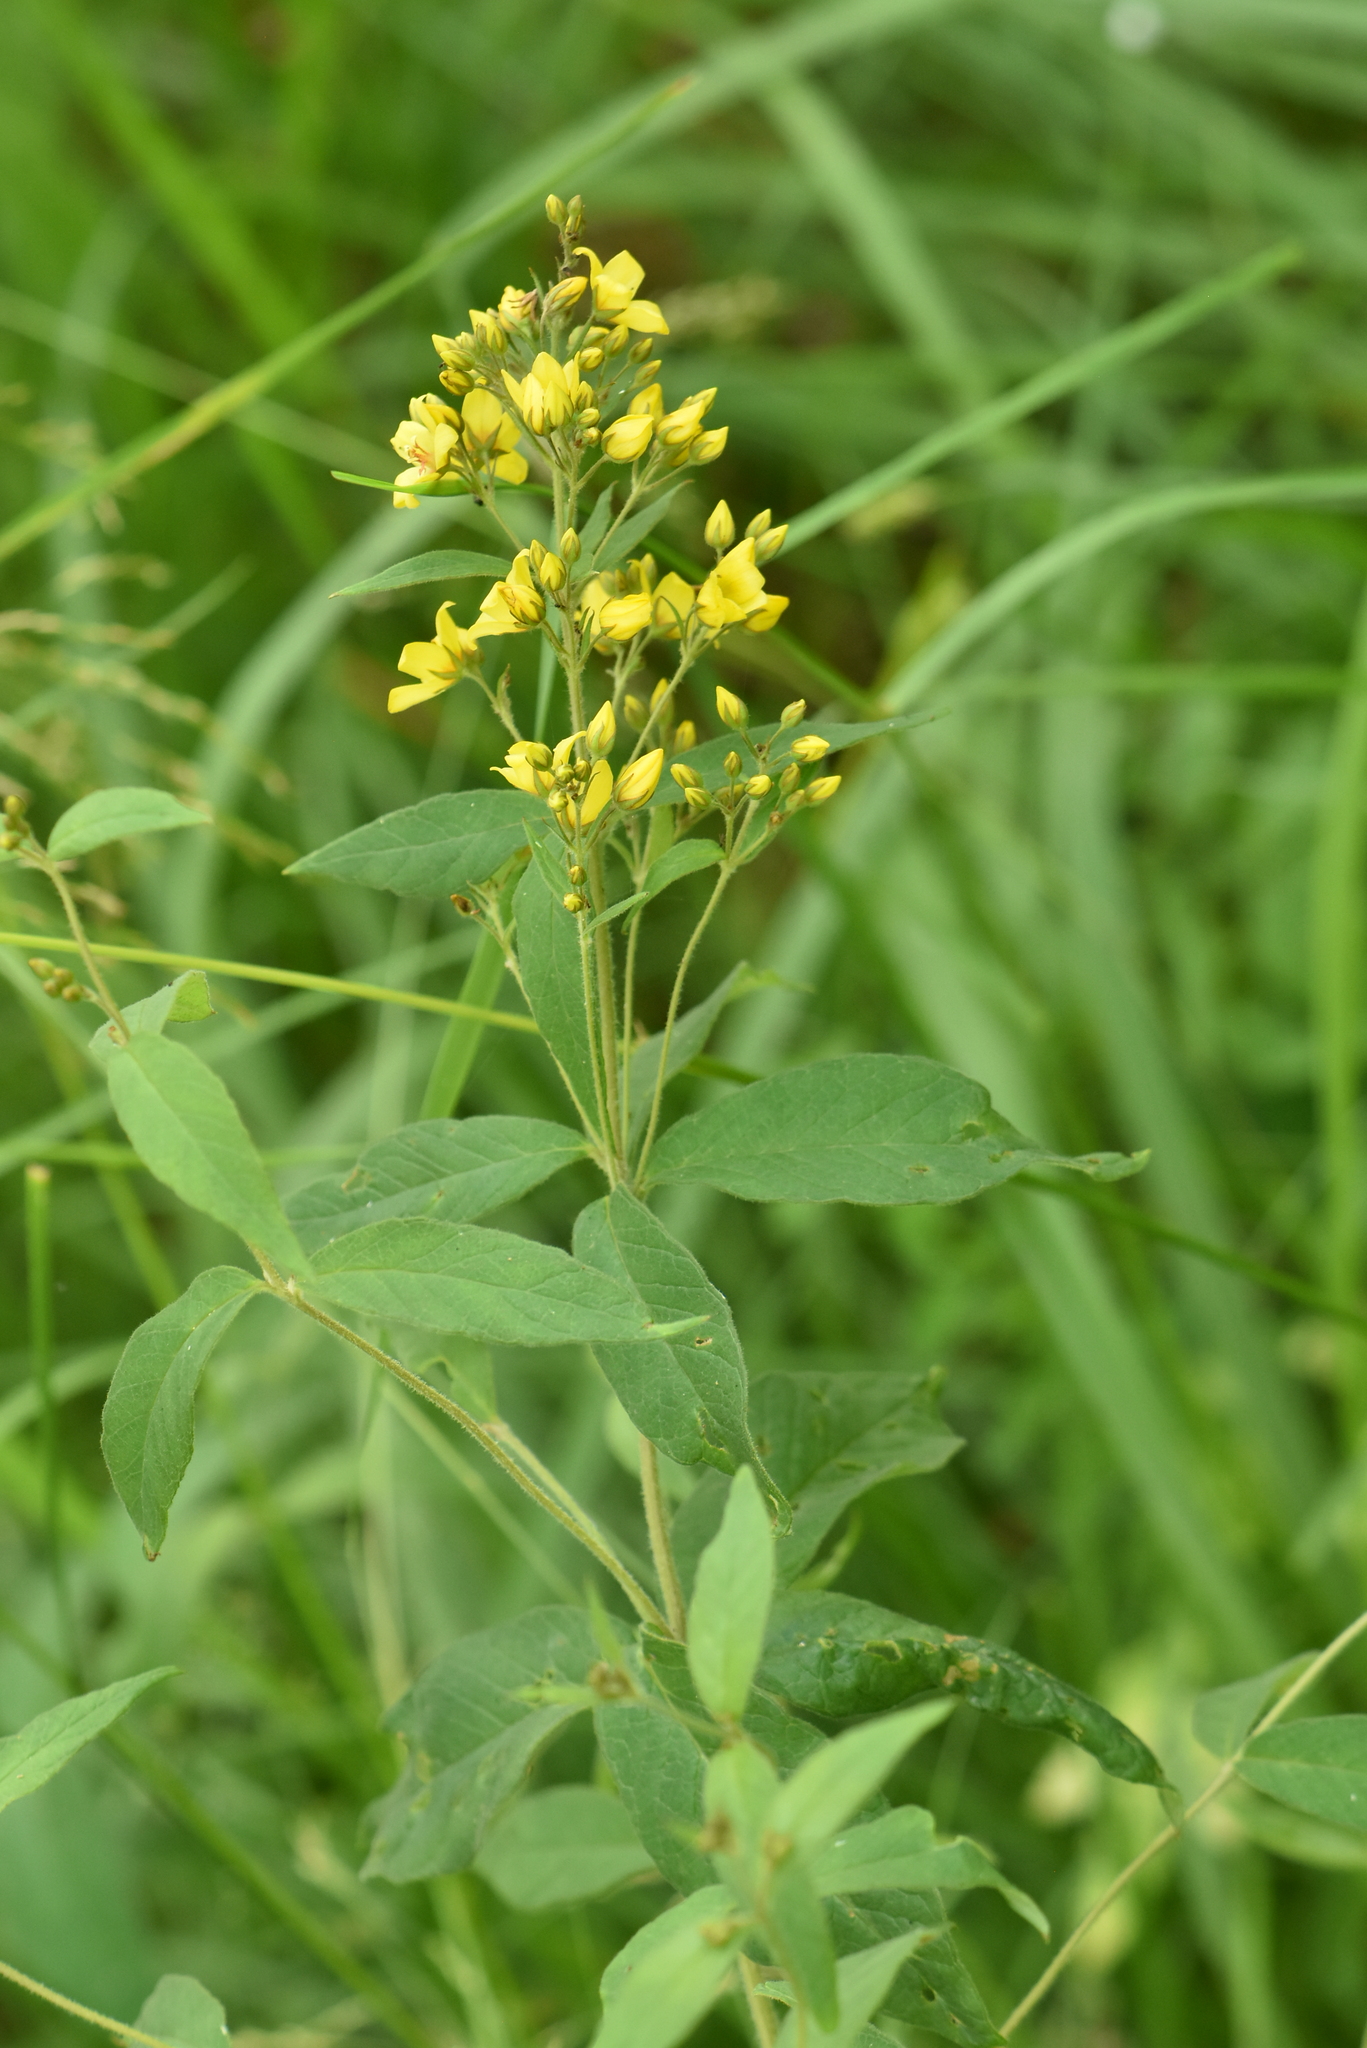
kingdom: Plantae
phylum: Tracheophyta
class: Magnoliopsida
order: Ericales
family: Primulaceae
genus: Lysimachia
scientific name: Lysimachia vulgaris
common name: Yellow loosestrife
